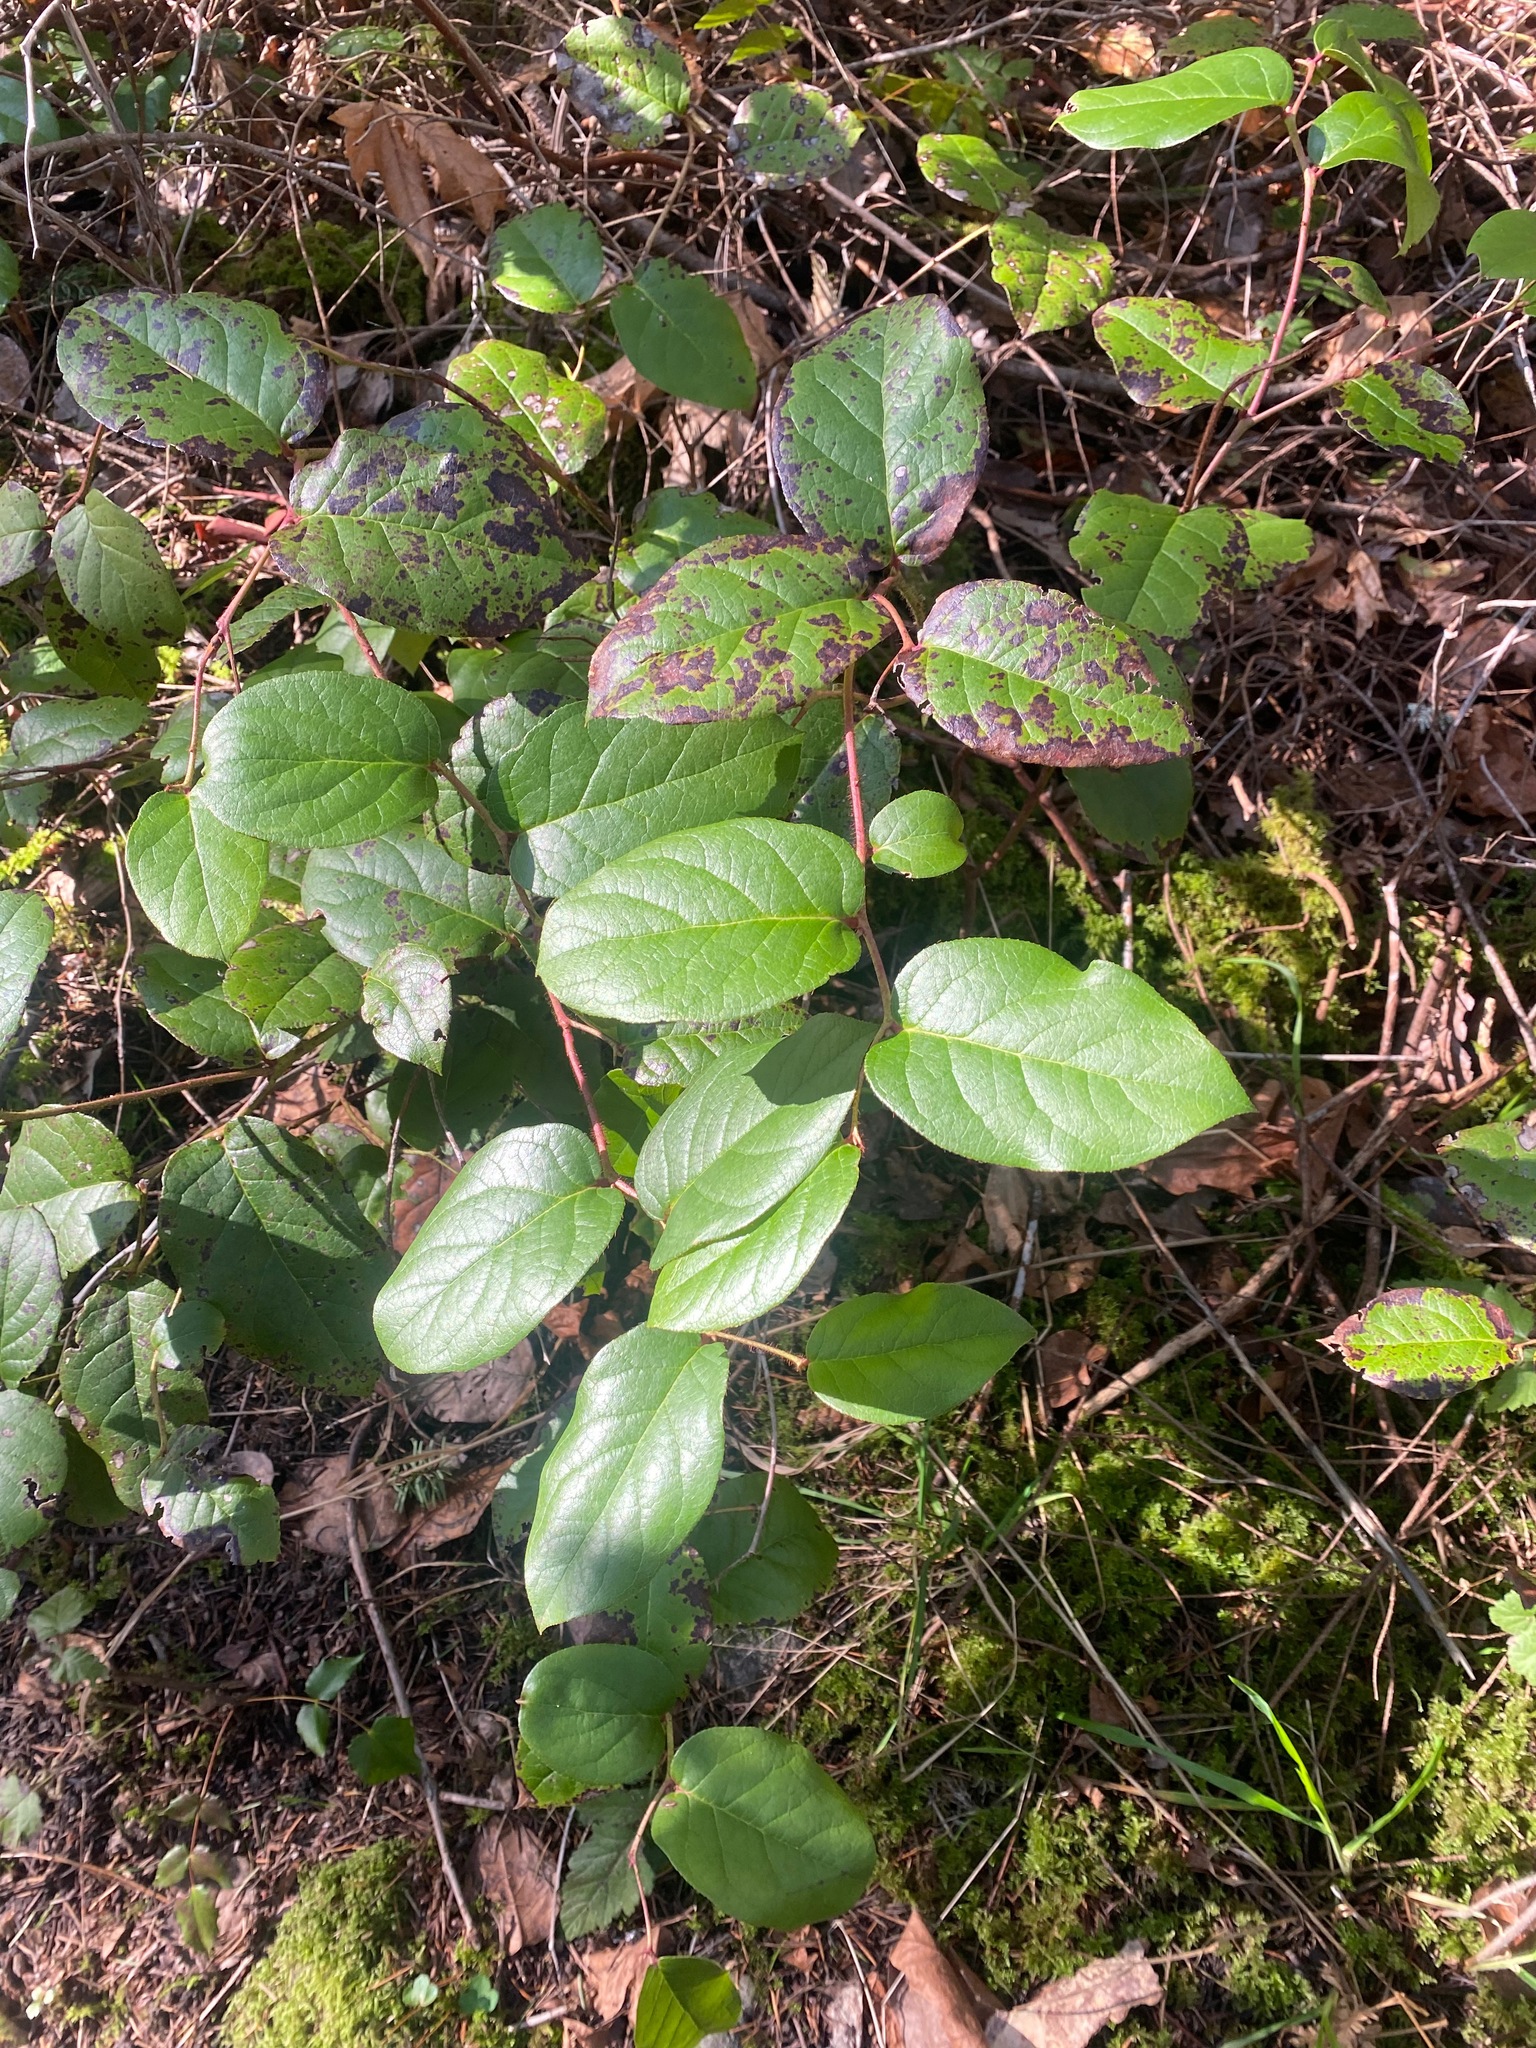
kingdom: Plantae
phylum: Tracheophyta
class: Magnoliopsida
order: Ericales
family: Ericaceae
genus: Gaultheria
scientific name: Gaultheria shallon
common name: Shallon
